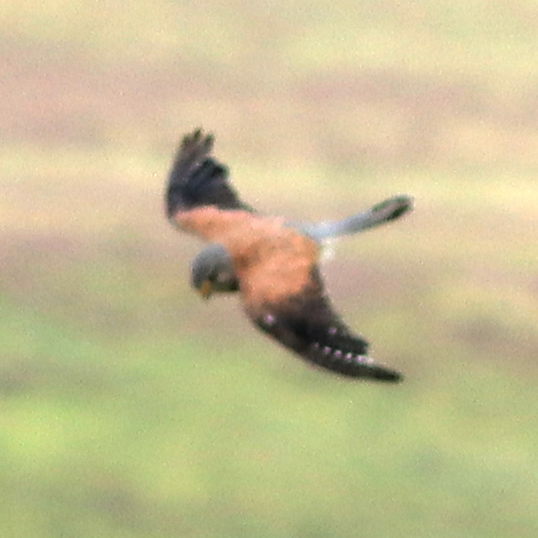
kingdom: Animalia
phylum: Chordata
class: Aves
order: Falconiformes
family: Falconidae
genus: Falco
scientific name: Falco tinnunculus
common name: Common kestrel
